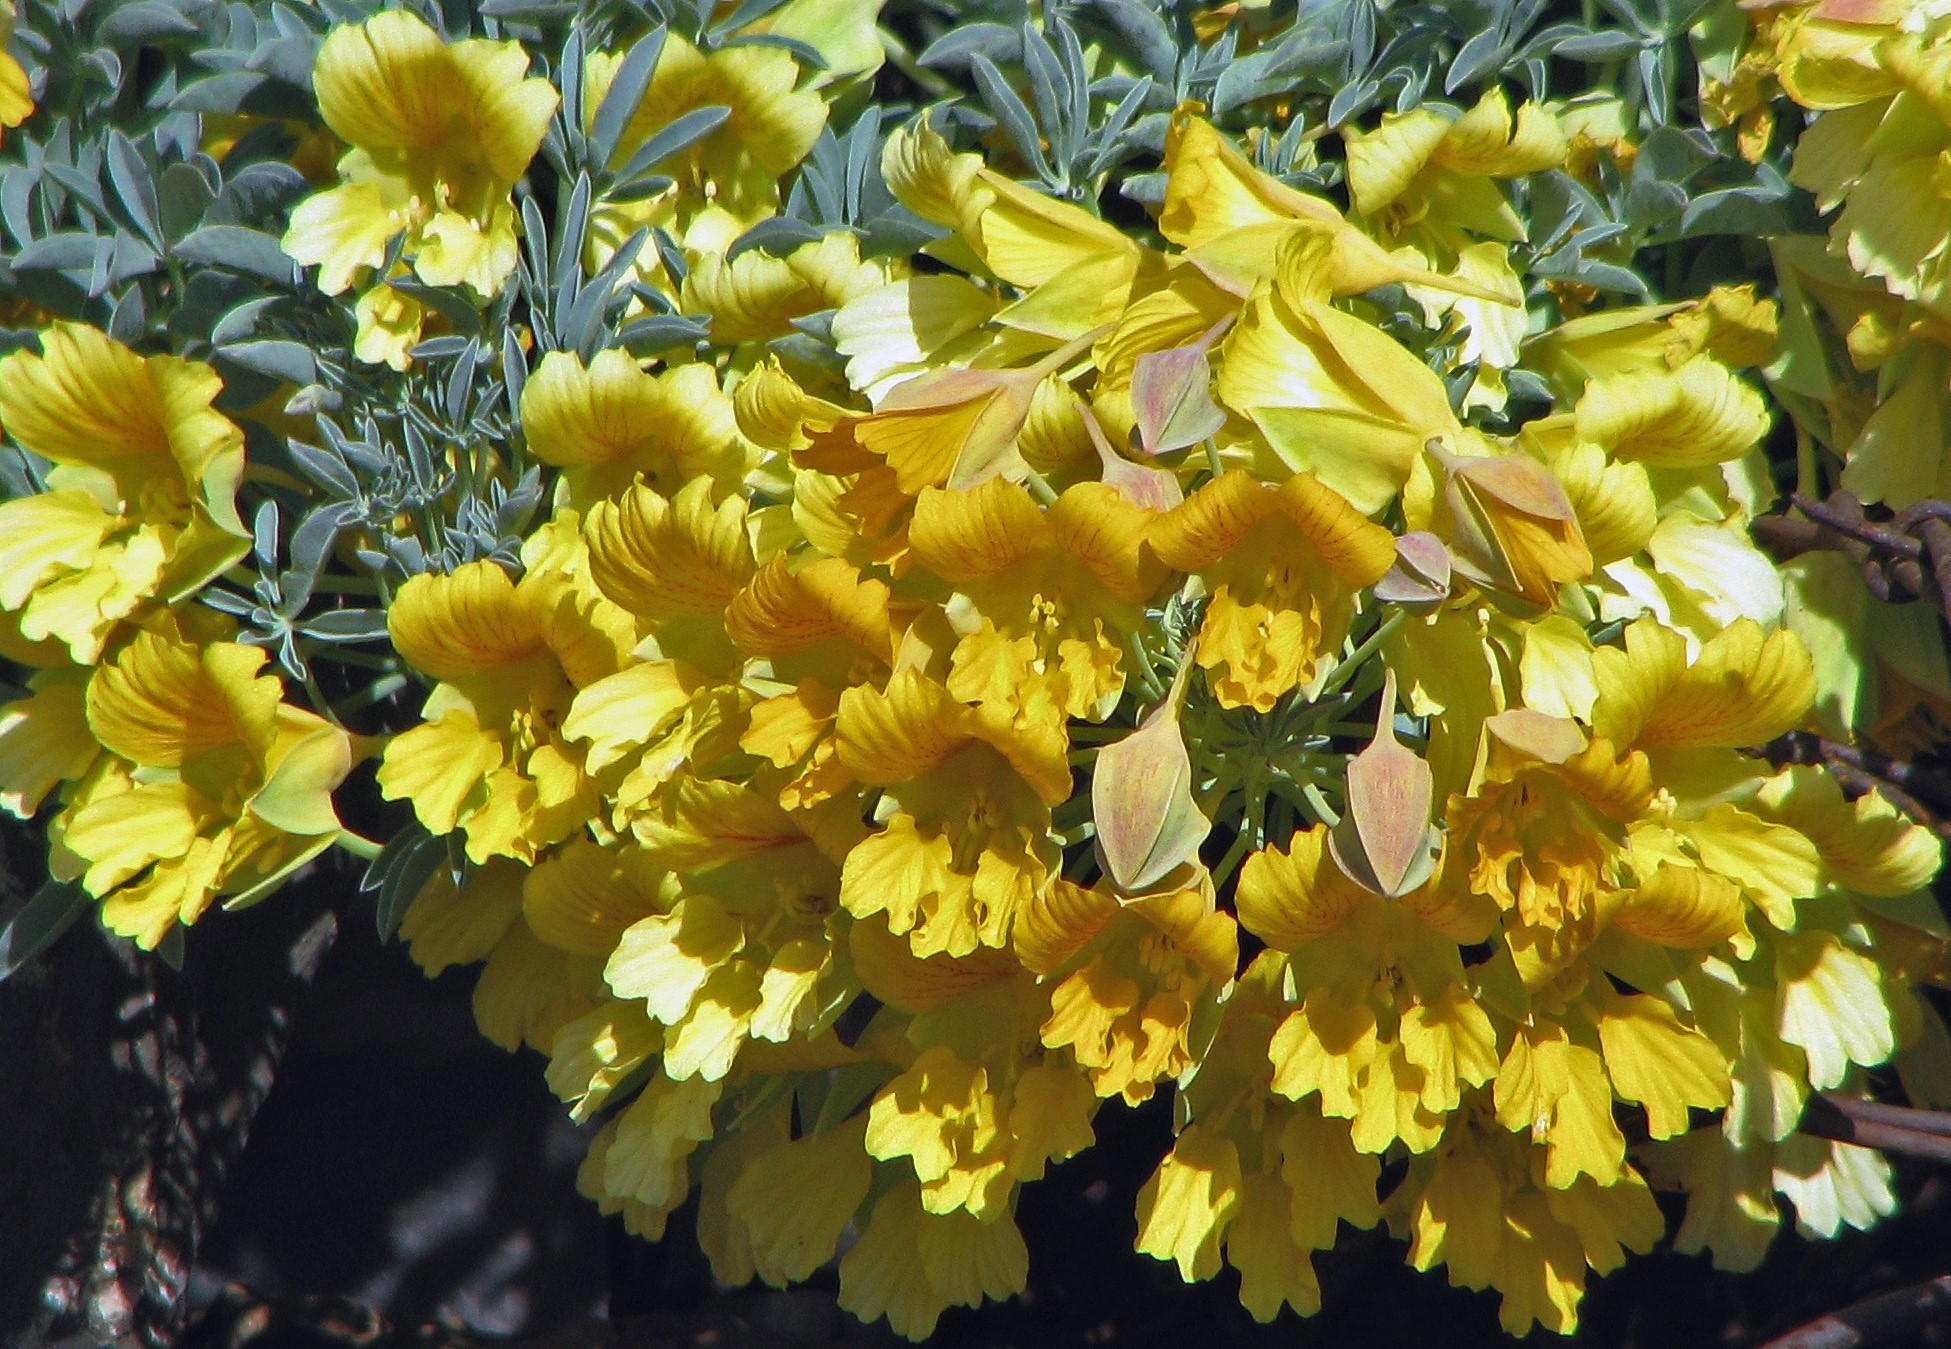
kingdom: Plantae
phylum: Tracheophyta
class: Magnoliopsida
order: Brassicales
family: Tropaeolaceae
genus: Tropaeolum
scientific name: Tropaeolum polyphyllum
